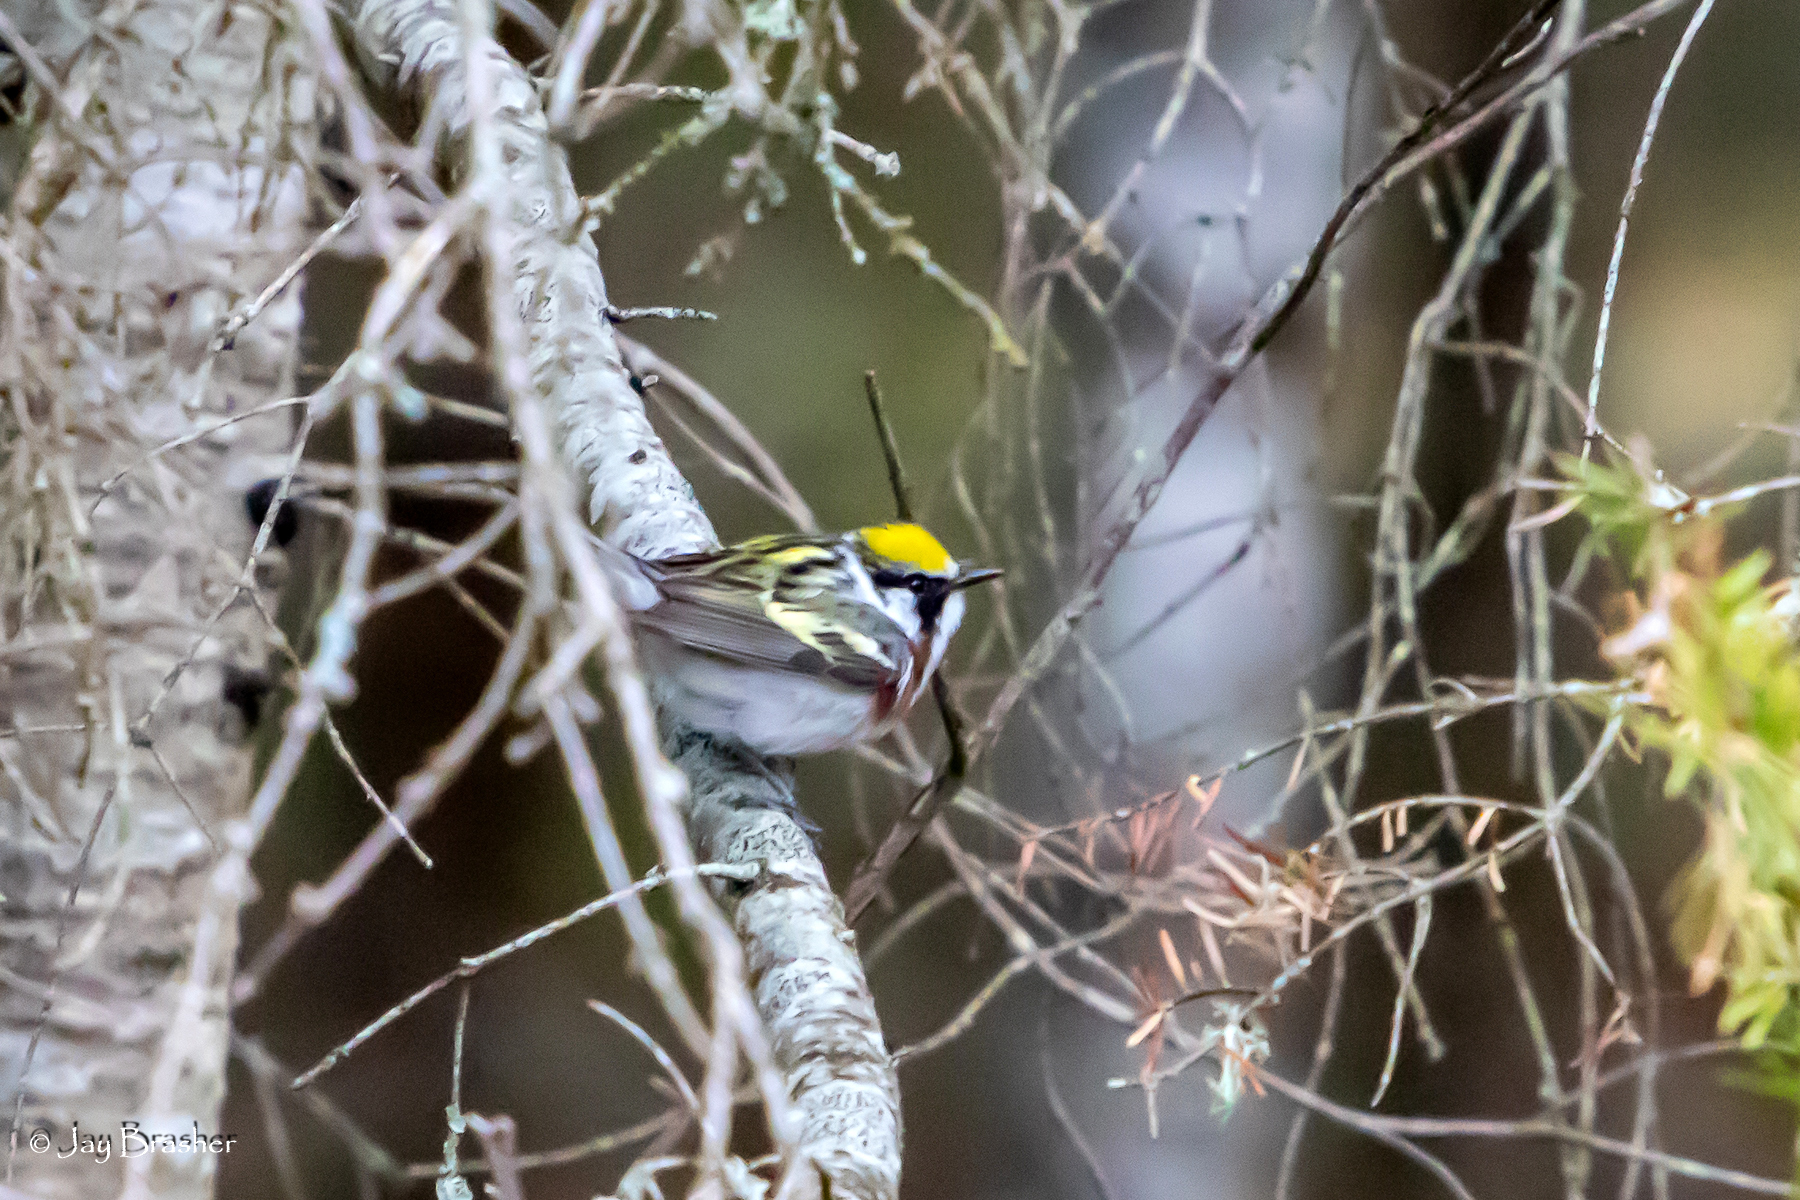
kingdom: Animalia
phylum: Chordata
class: Aves
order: Passeriformes
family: Parulidae
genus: Setophaga
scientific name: Setophaga pensylvanica
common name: Chestnut-sided warbler
